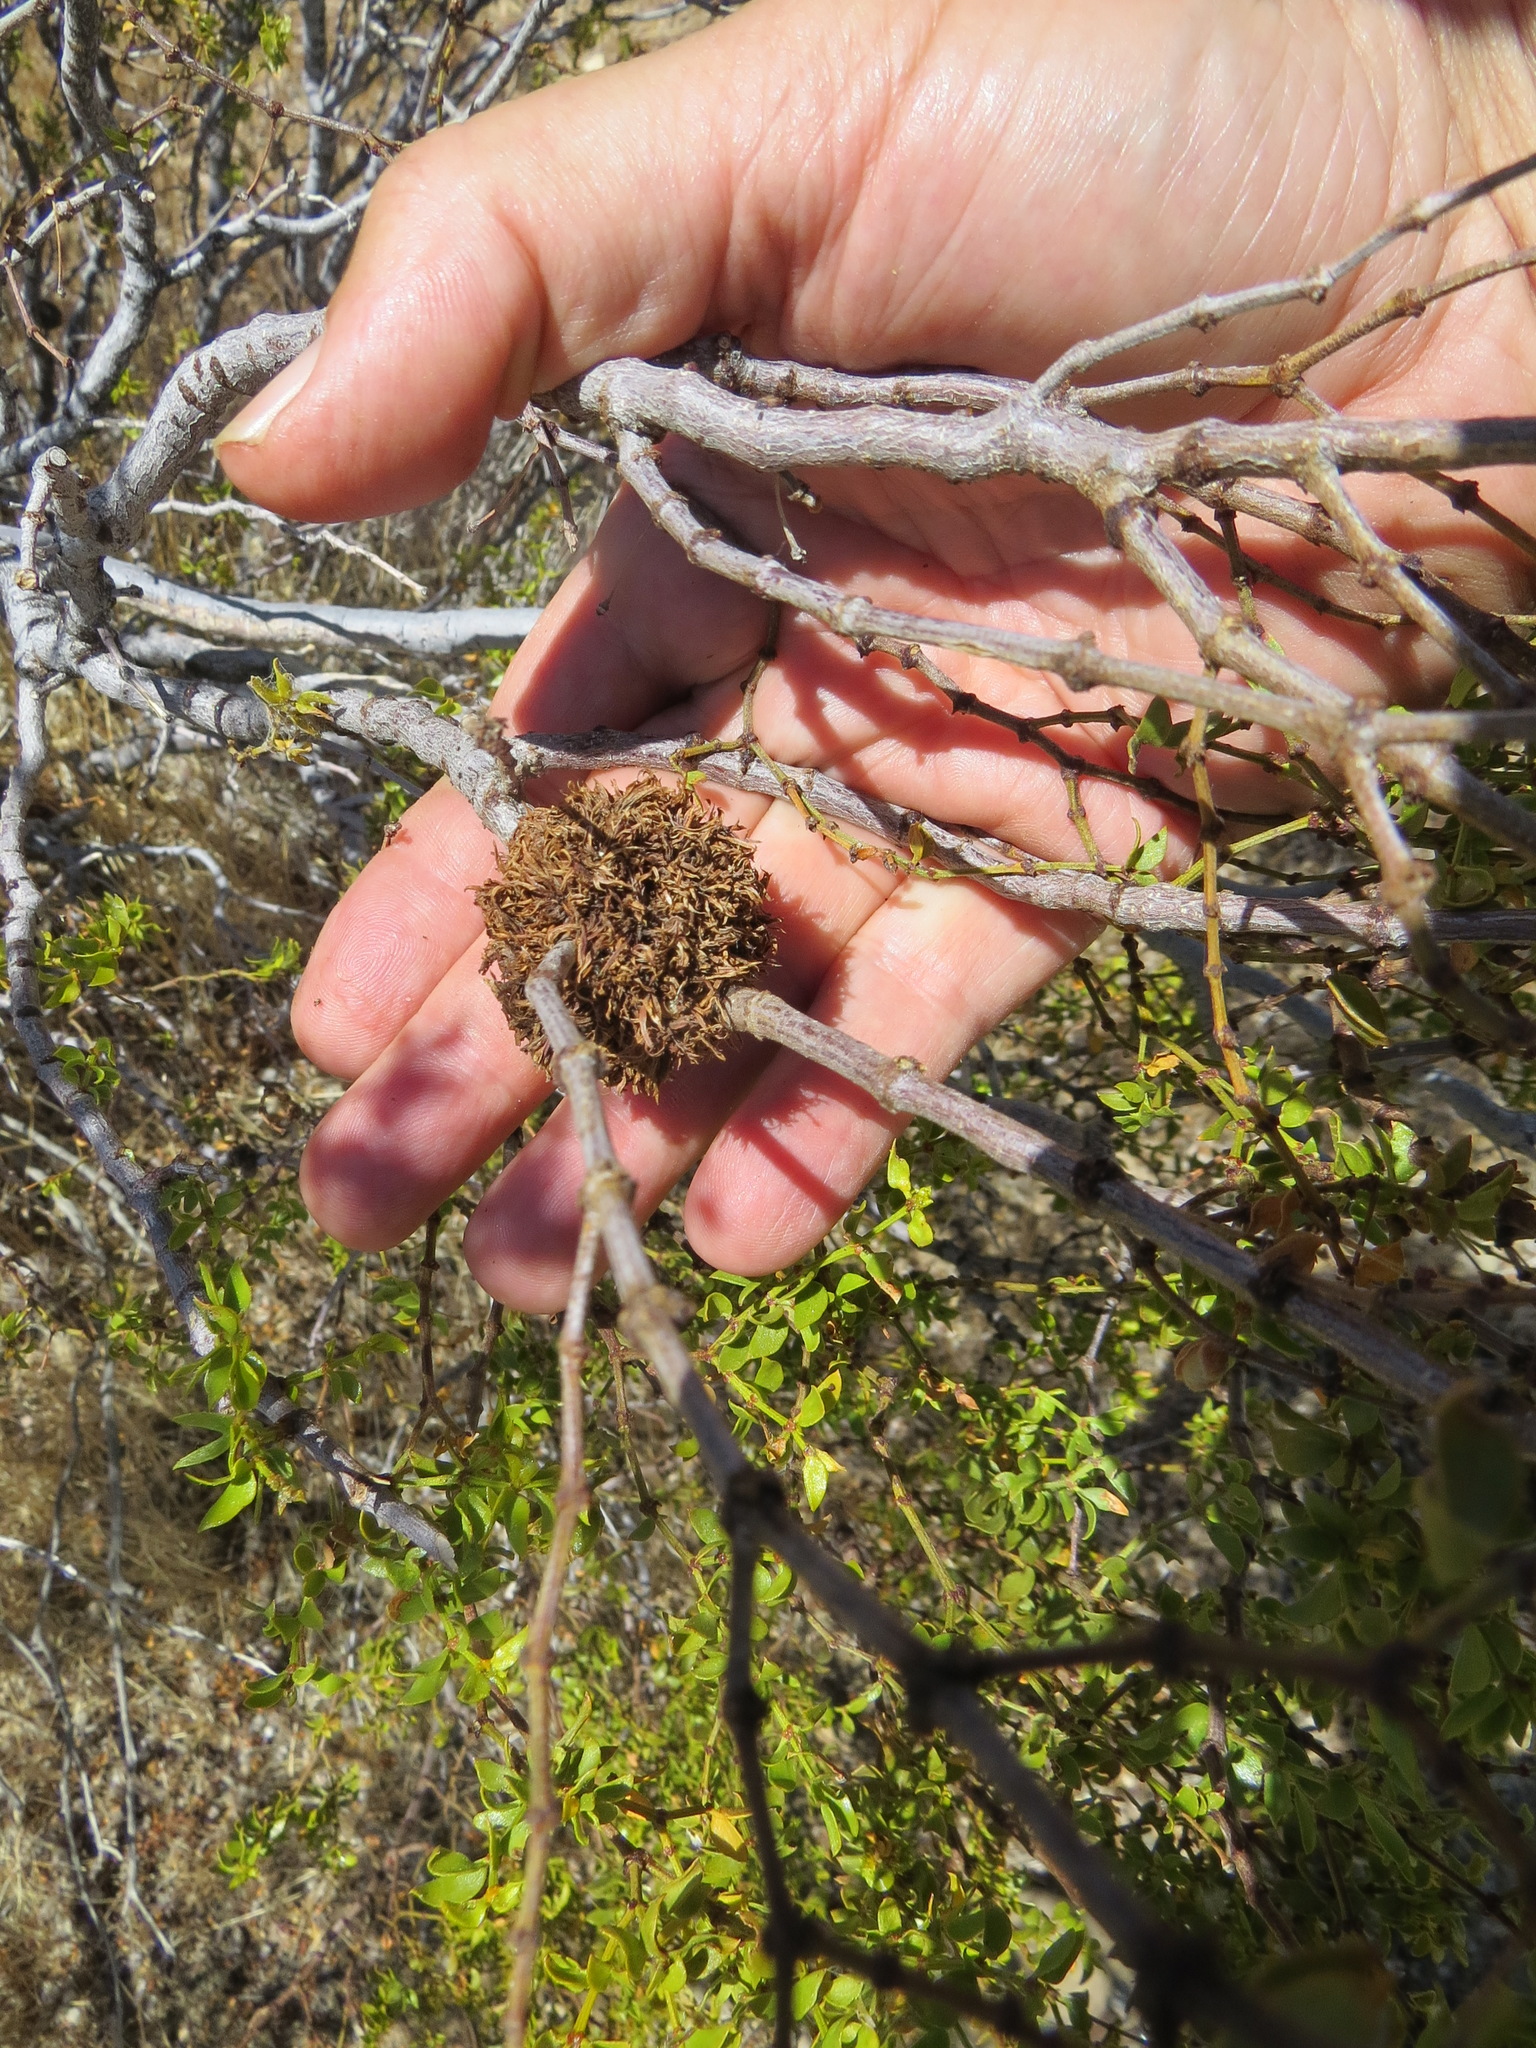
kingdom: Animalia
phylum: Arthropoda
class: Insecta
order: Diptera
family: Cecidomyiidae
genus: Asphondylia
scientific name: Asphondylia auripila
